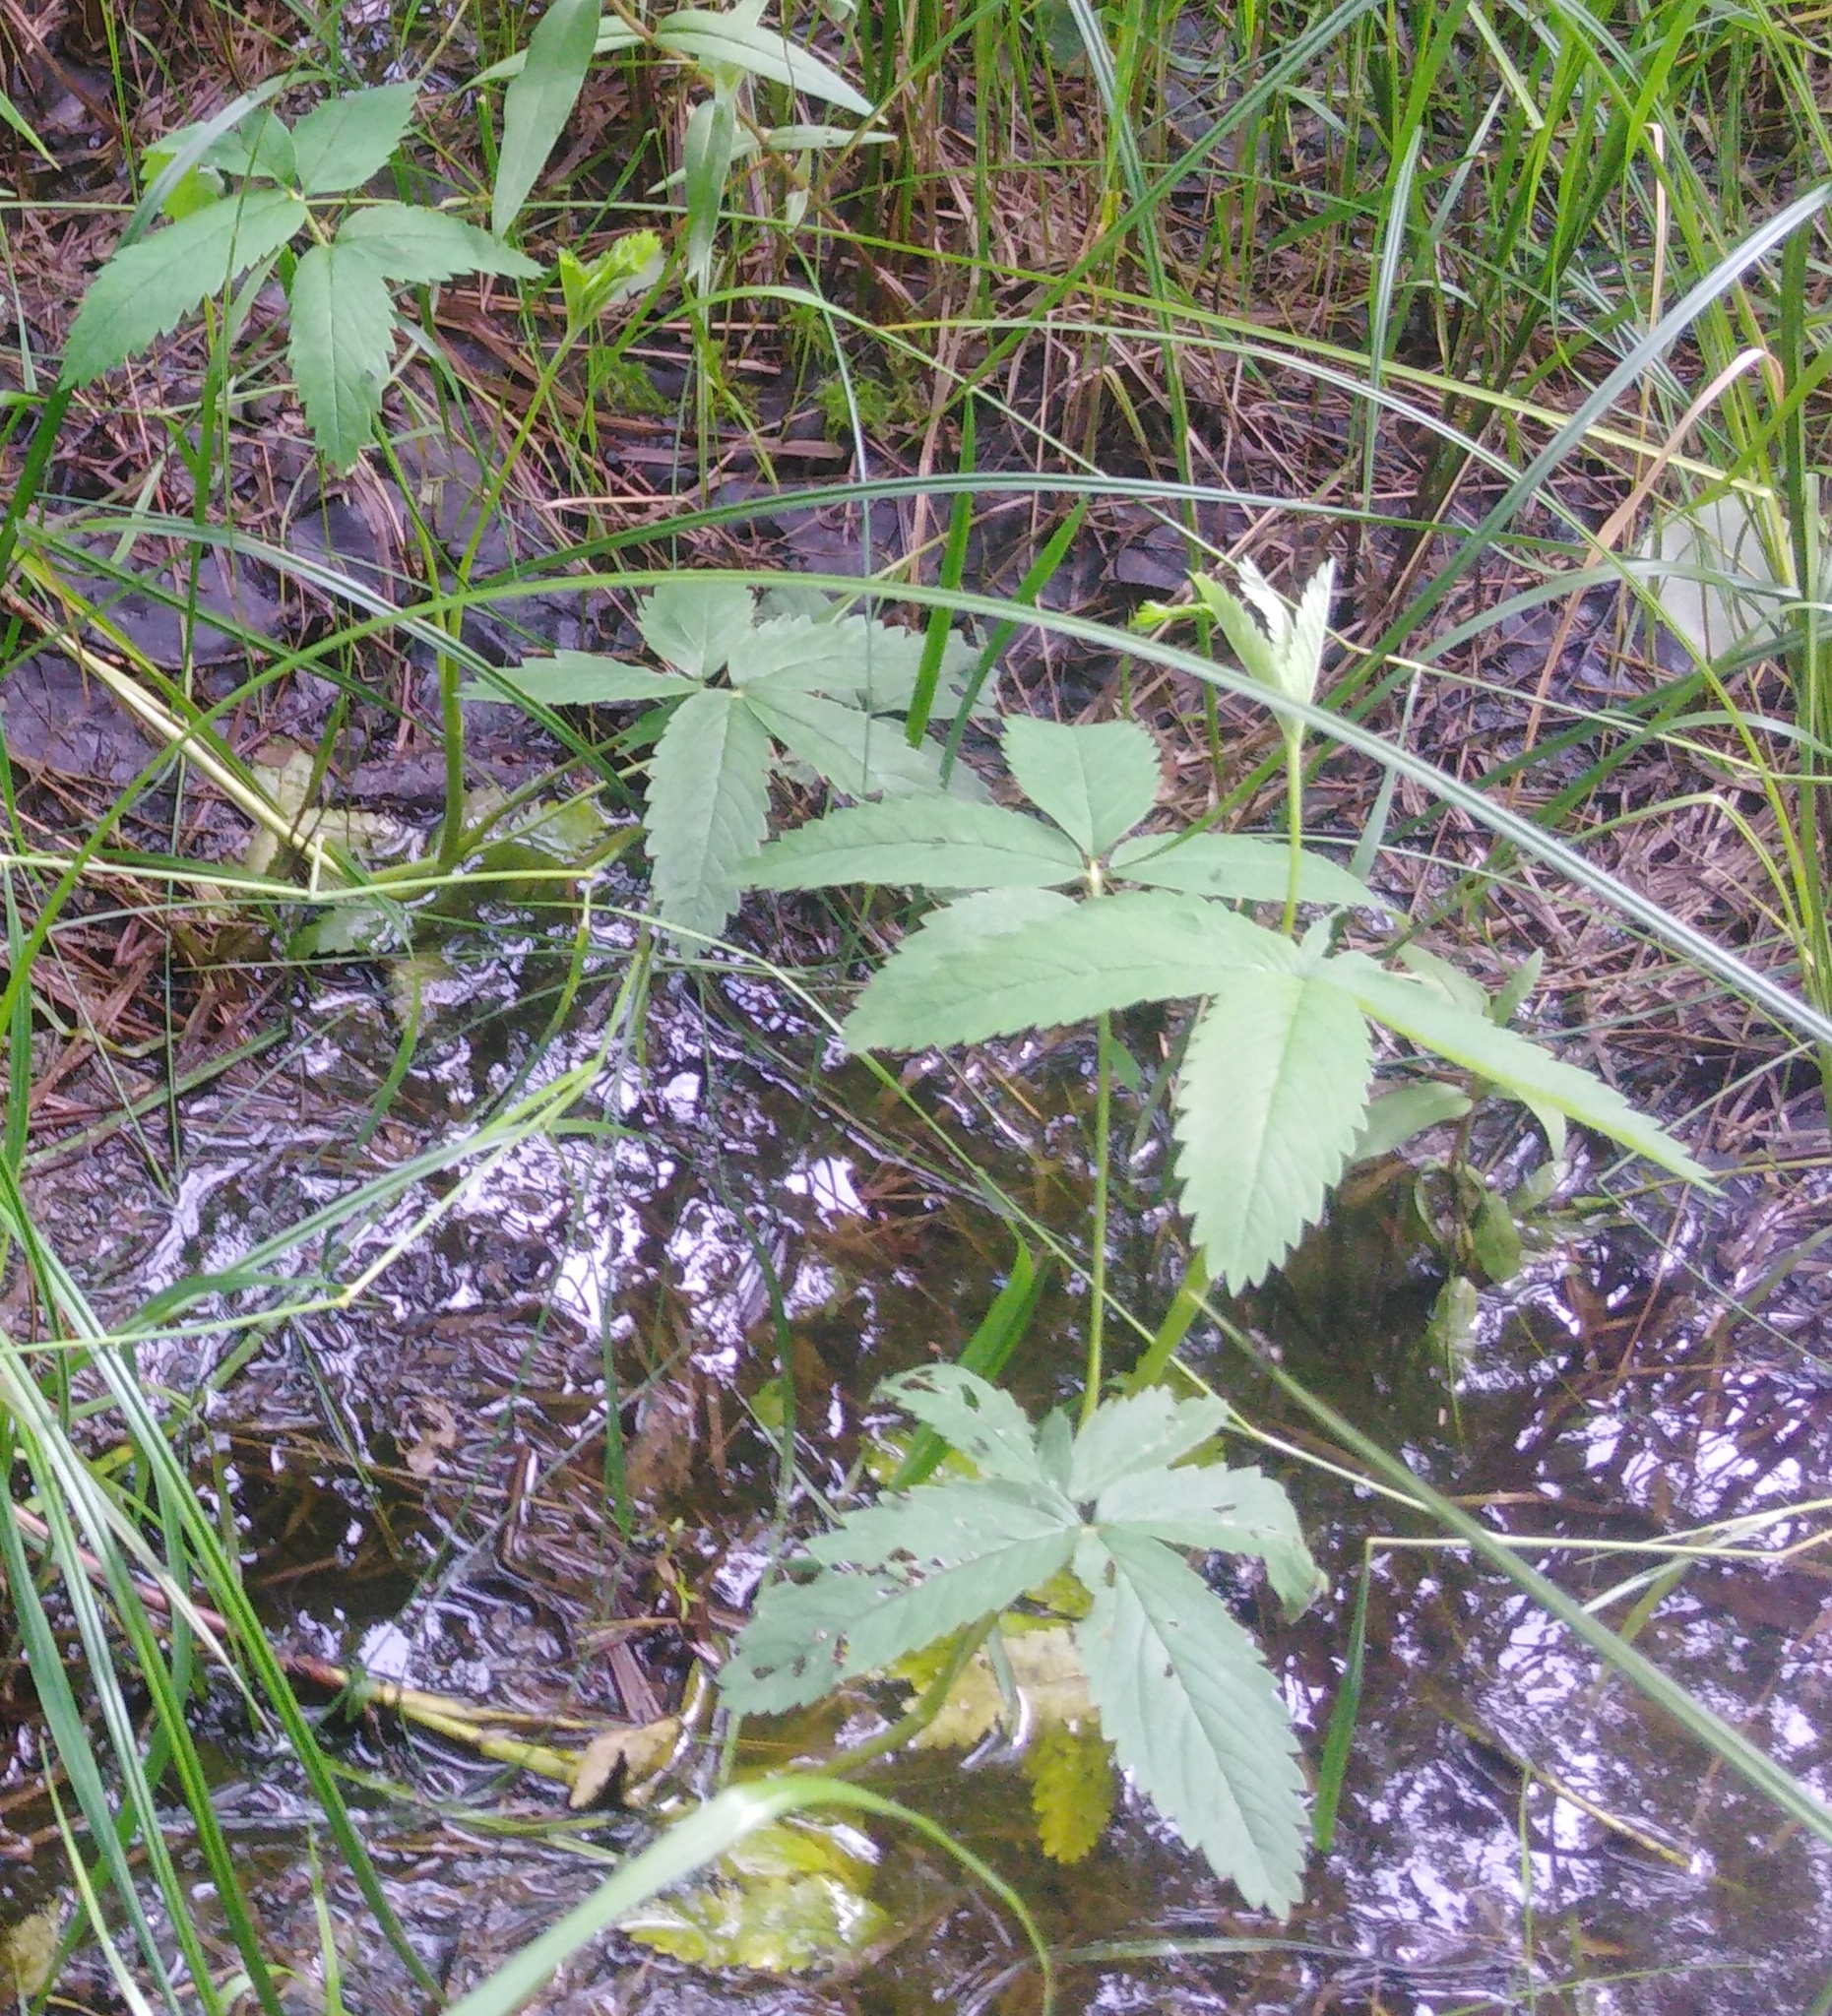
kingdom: Plantae
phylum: Tracheophyta
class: Magnoliopsida
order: Rosales
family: Rosaceae
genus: Comarum
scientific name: Comarum palustre
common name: Marsh cinquefoil
